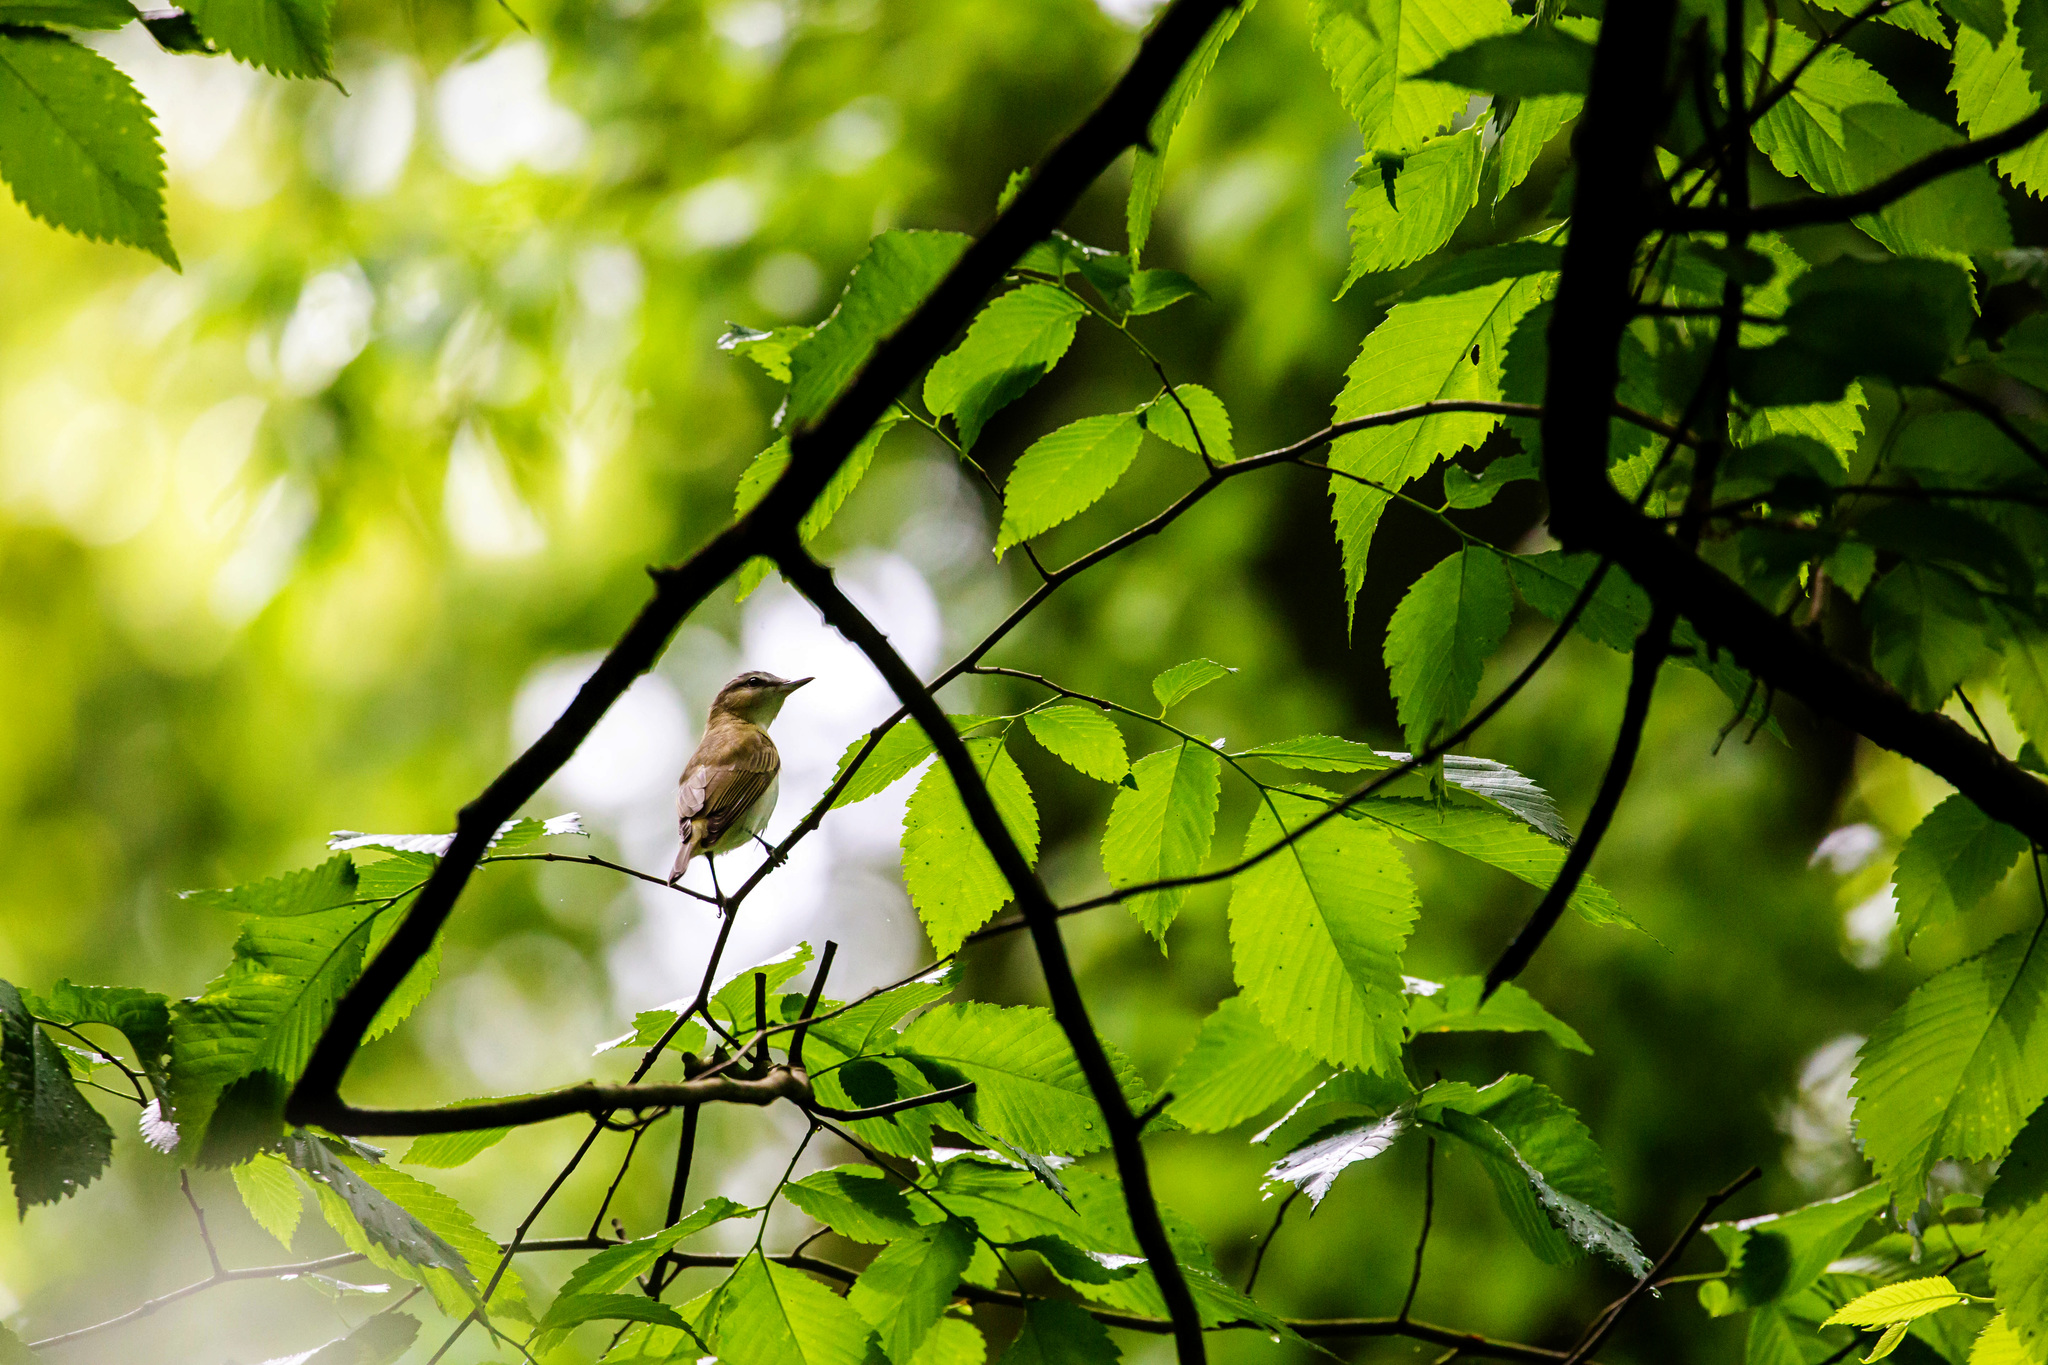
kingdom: Animalia
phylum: Chordata
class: Aves
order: Passeriformes
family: Vireonidae
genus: Vireo
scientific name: Vireo olivaceus
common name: Red-eyed vireo
